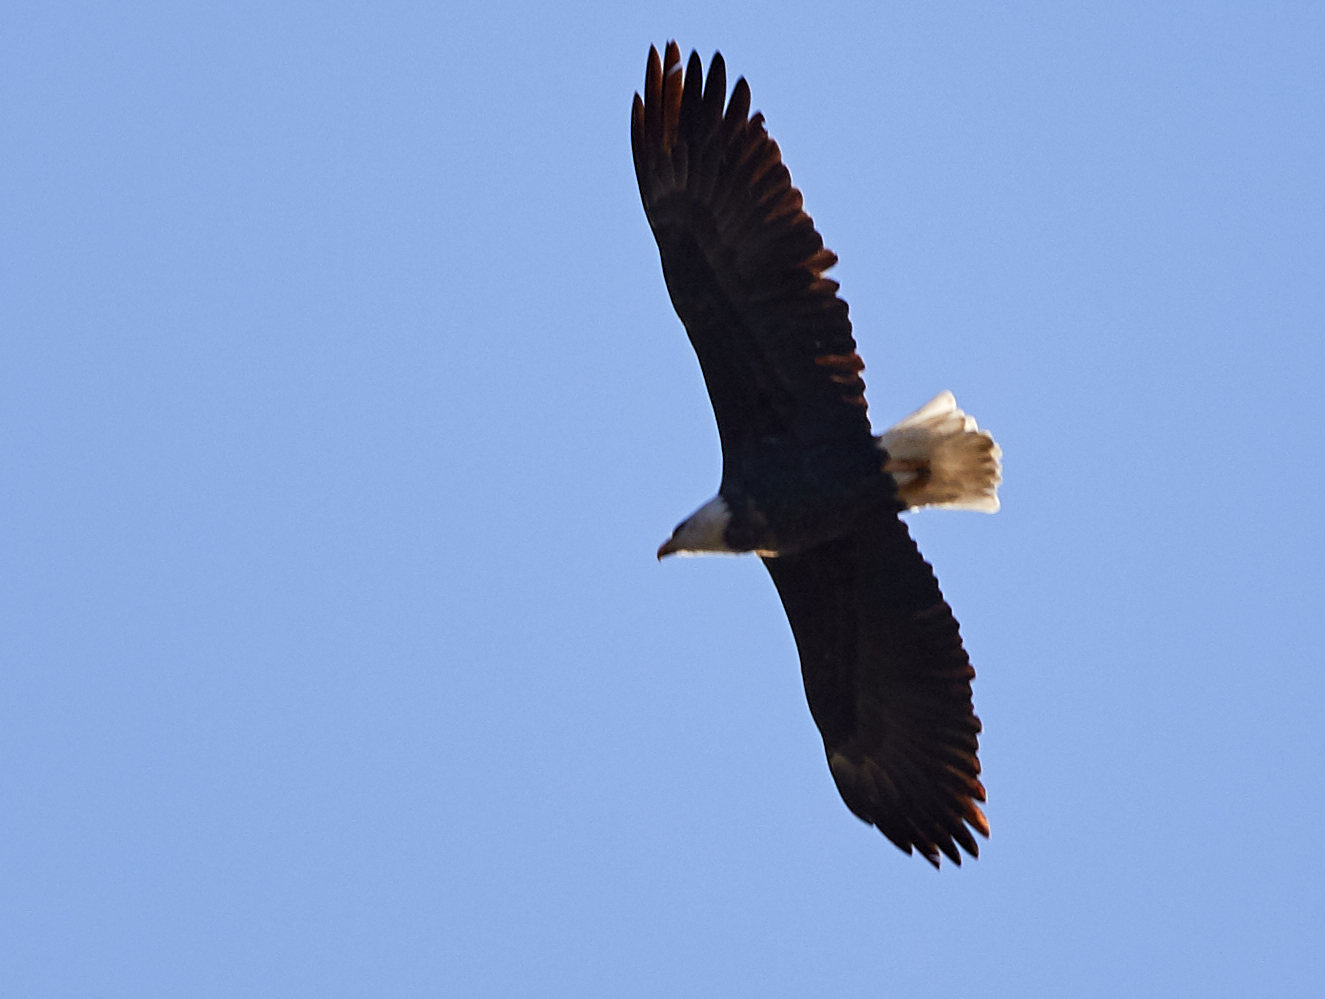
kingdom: Animalia
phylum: Chordata
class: Aves
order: Accipitriformes
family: Accipitridae
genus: Haliaeetus
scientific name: Haliaeetus leucocephalus
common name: Bald eagle
